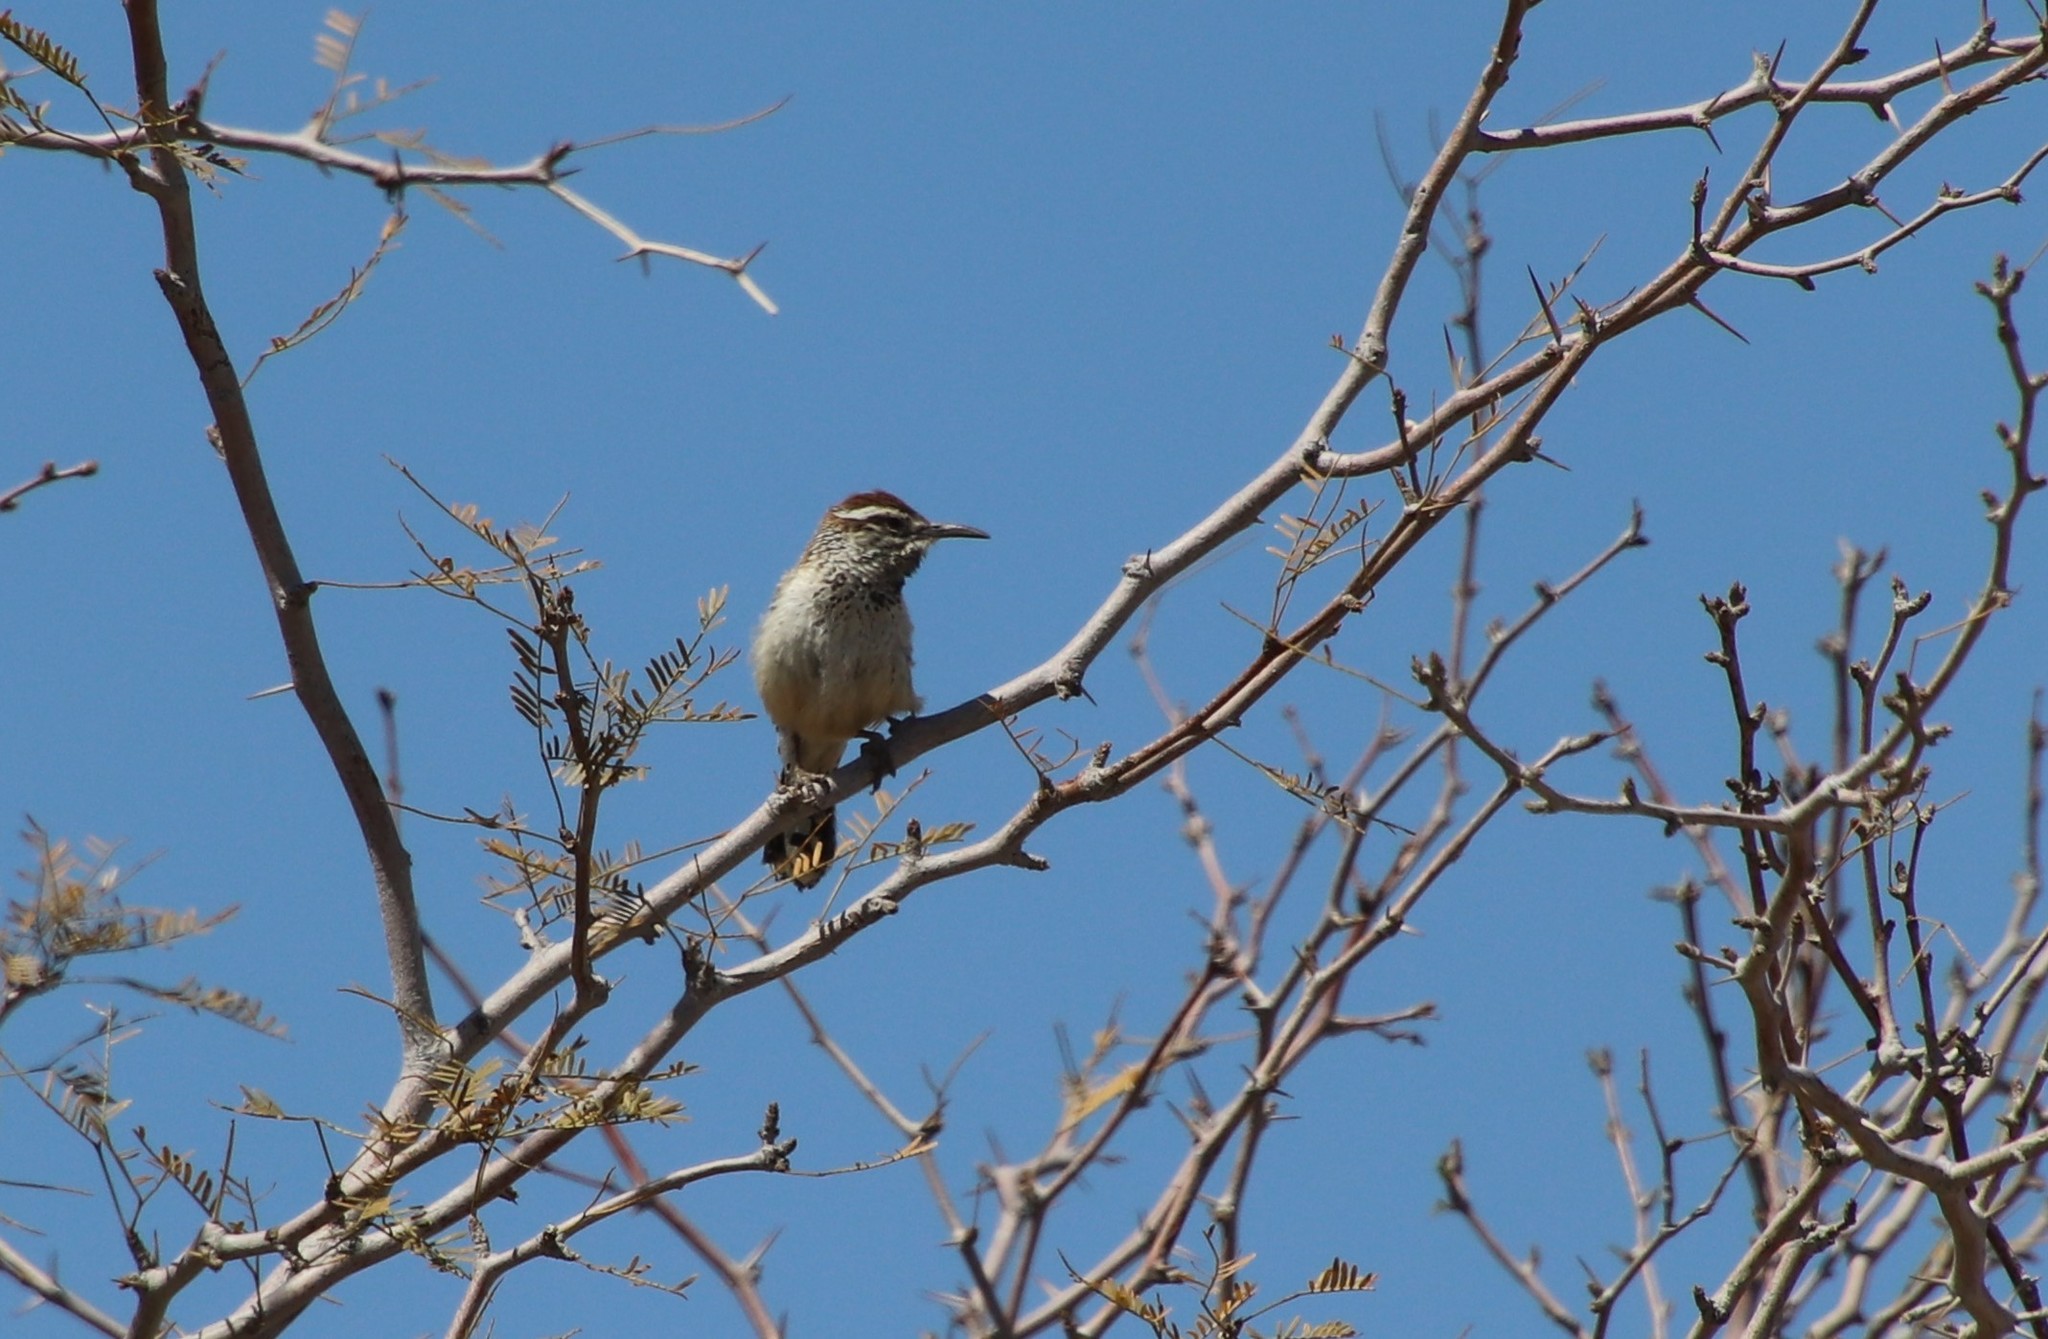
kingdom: Animalia
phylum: Chordata
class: Aves
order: Passeriformes
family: Troglodytidae
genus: Campylorhynchus
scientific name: Campylorhynchus brunneicapillus
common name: Cactus wren
